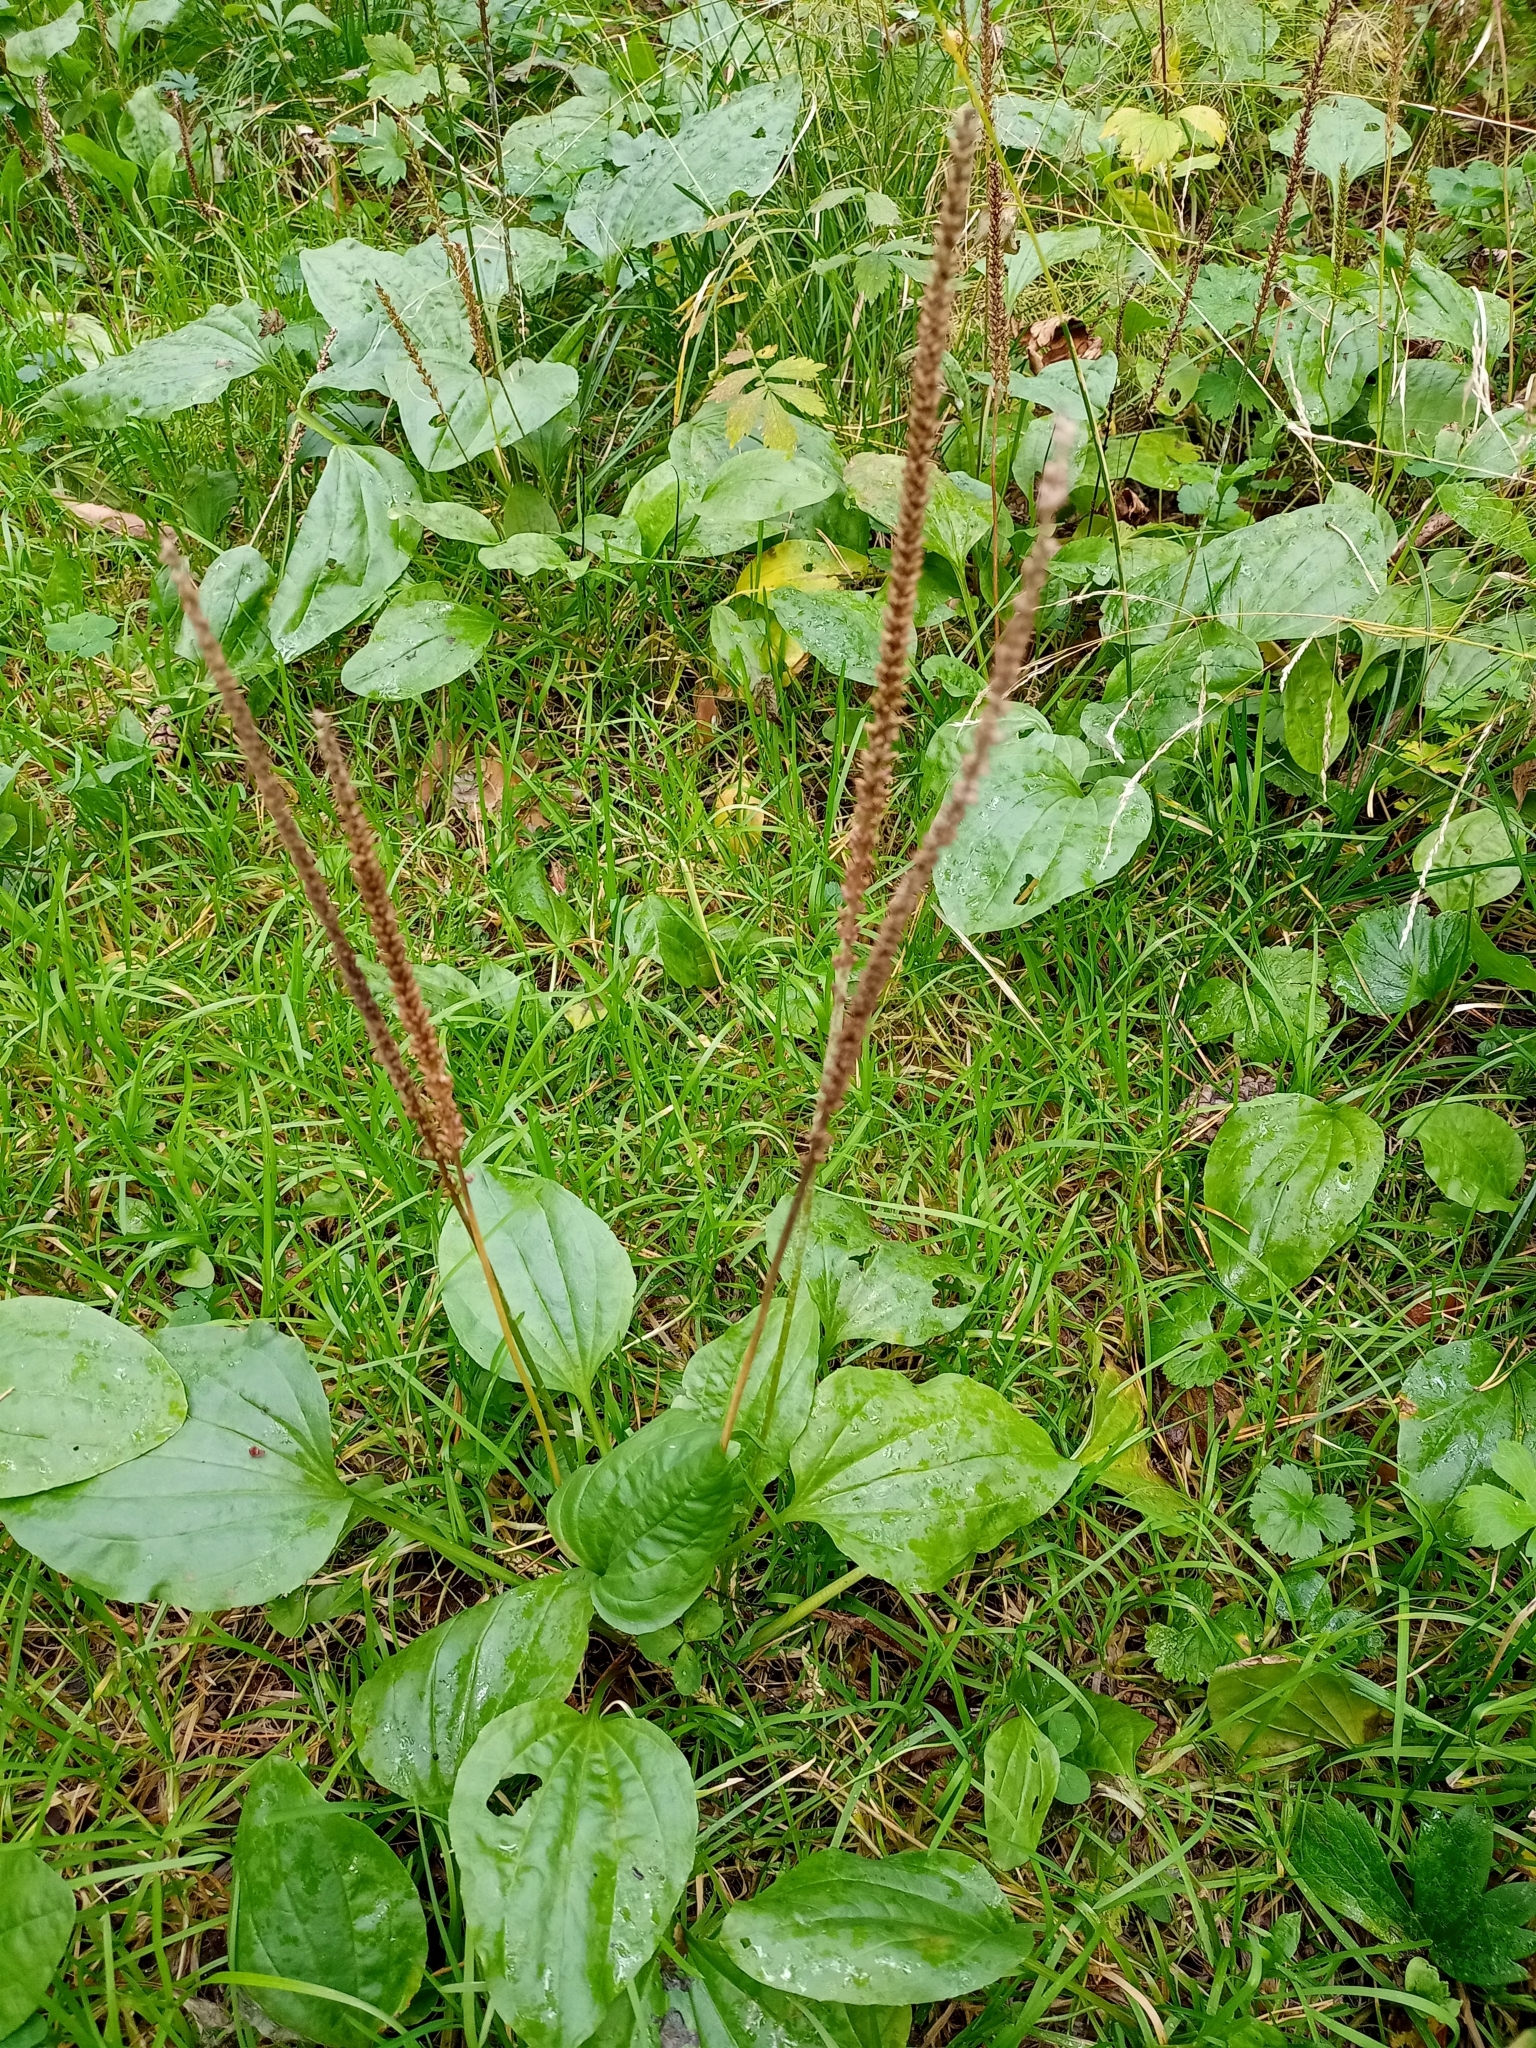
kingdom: Plantae
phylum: Tracheophyta
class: Magnoliopsida
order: Lamiales
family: Plantaginaceae
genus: Plantago
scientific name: Plantago major
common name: Common plantain
